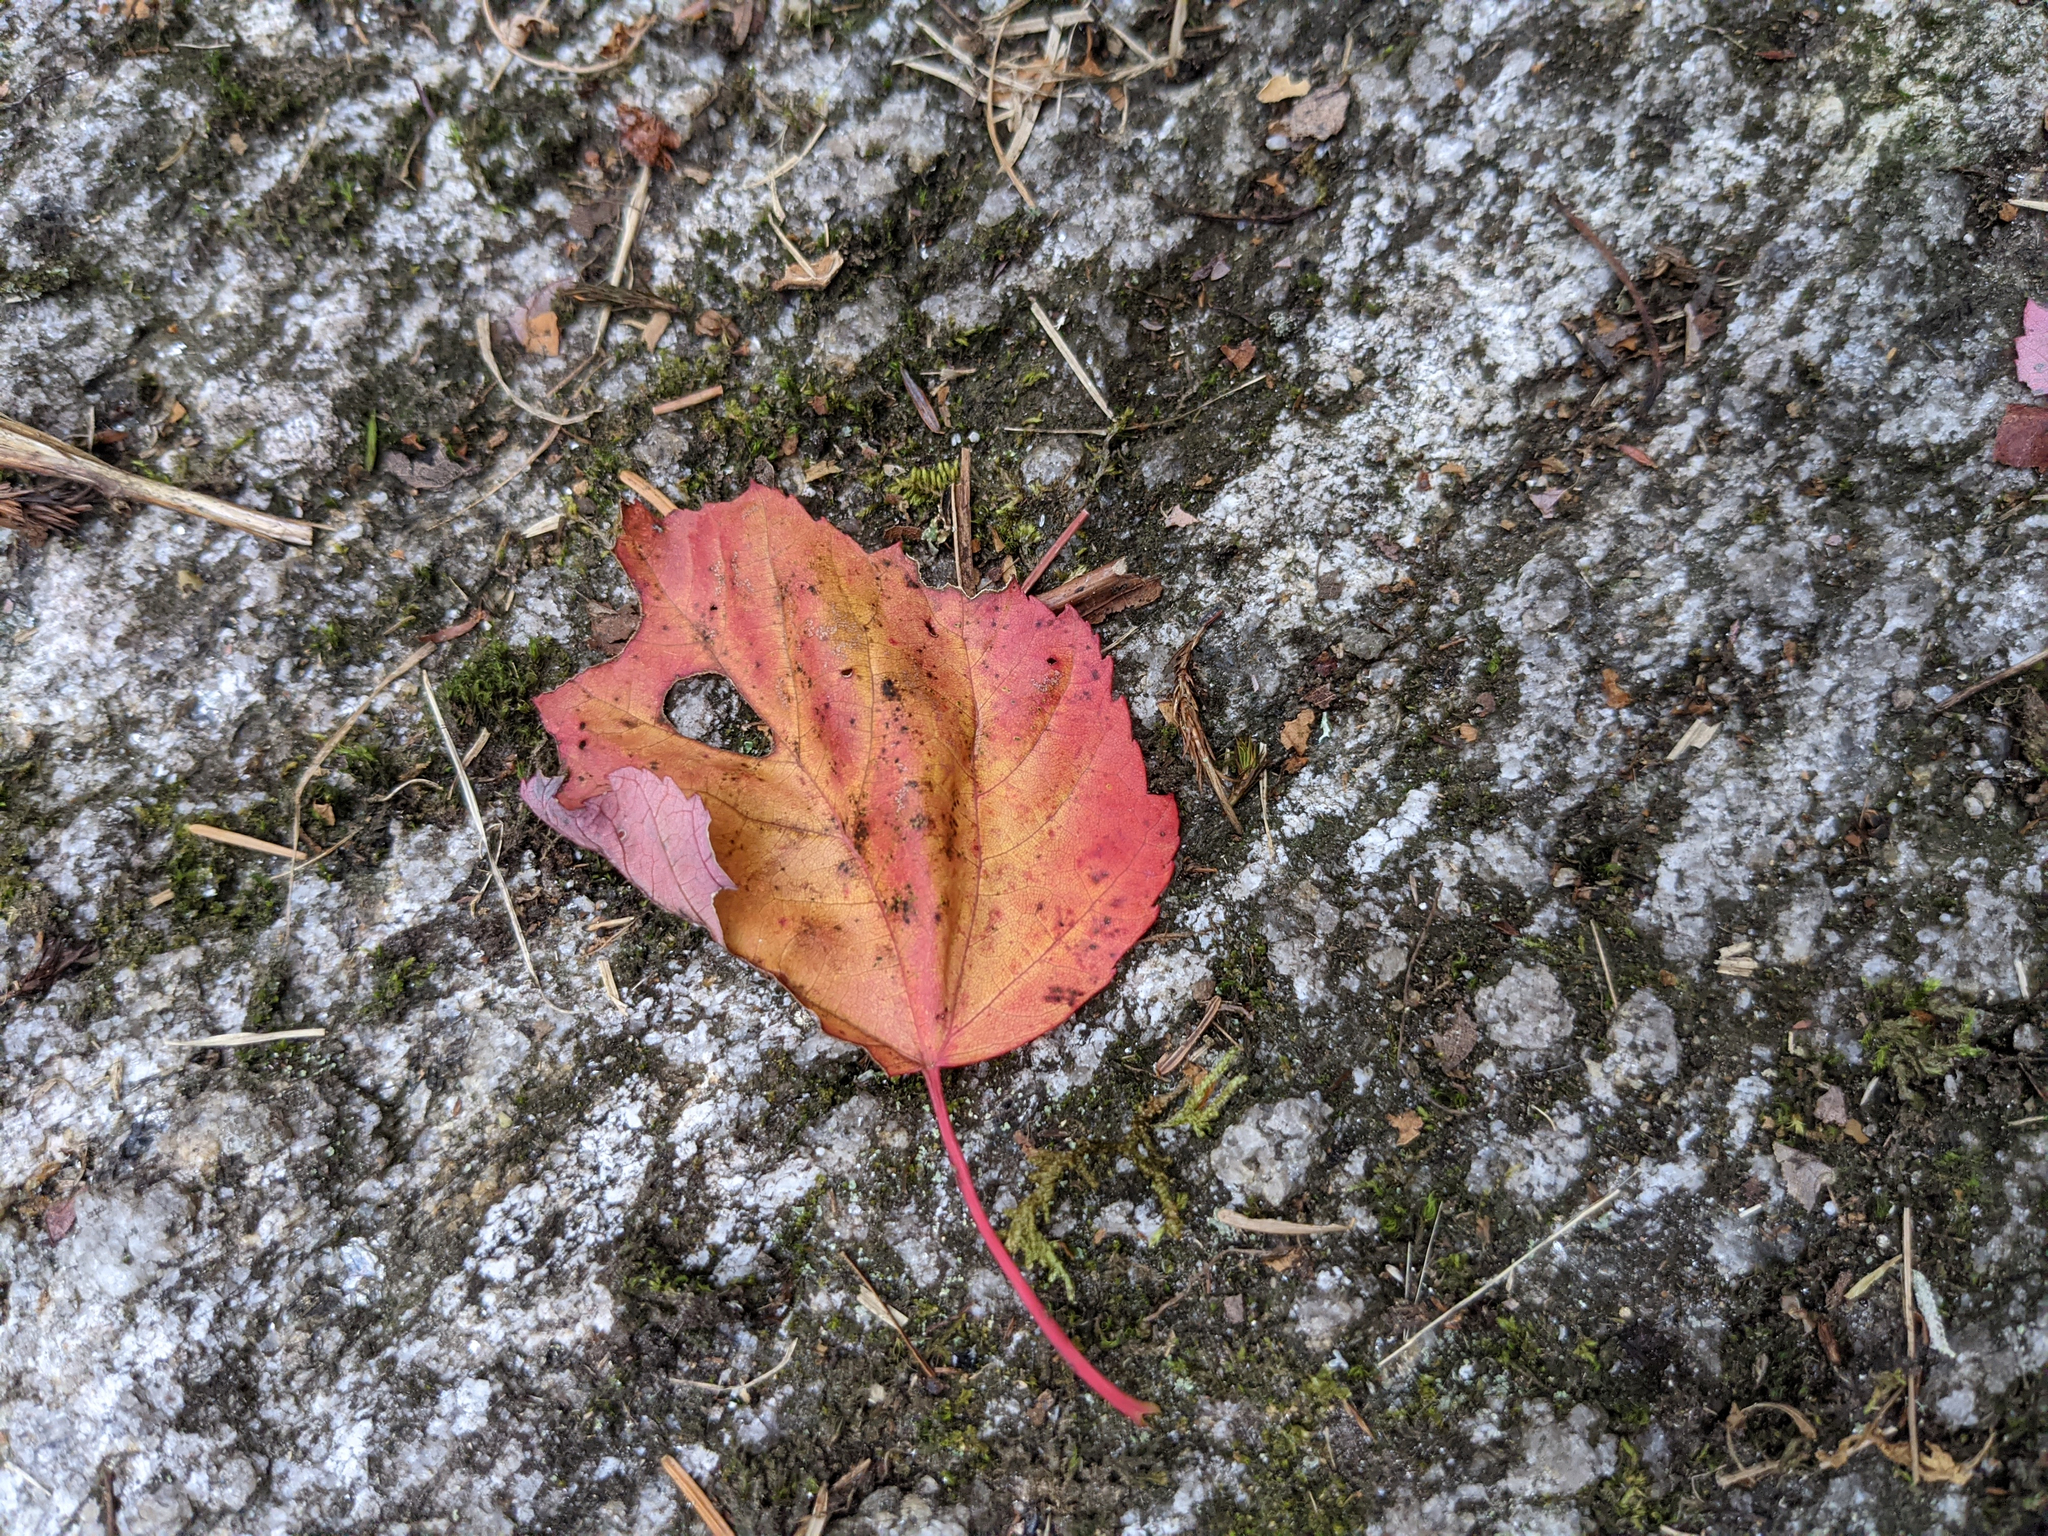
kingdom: Plantae
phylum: Tracheophyta
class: Magnoliopsida
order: Sapindales
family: Sapindaceae
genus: Acer
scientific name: Acer rubrum
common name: Red maple
